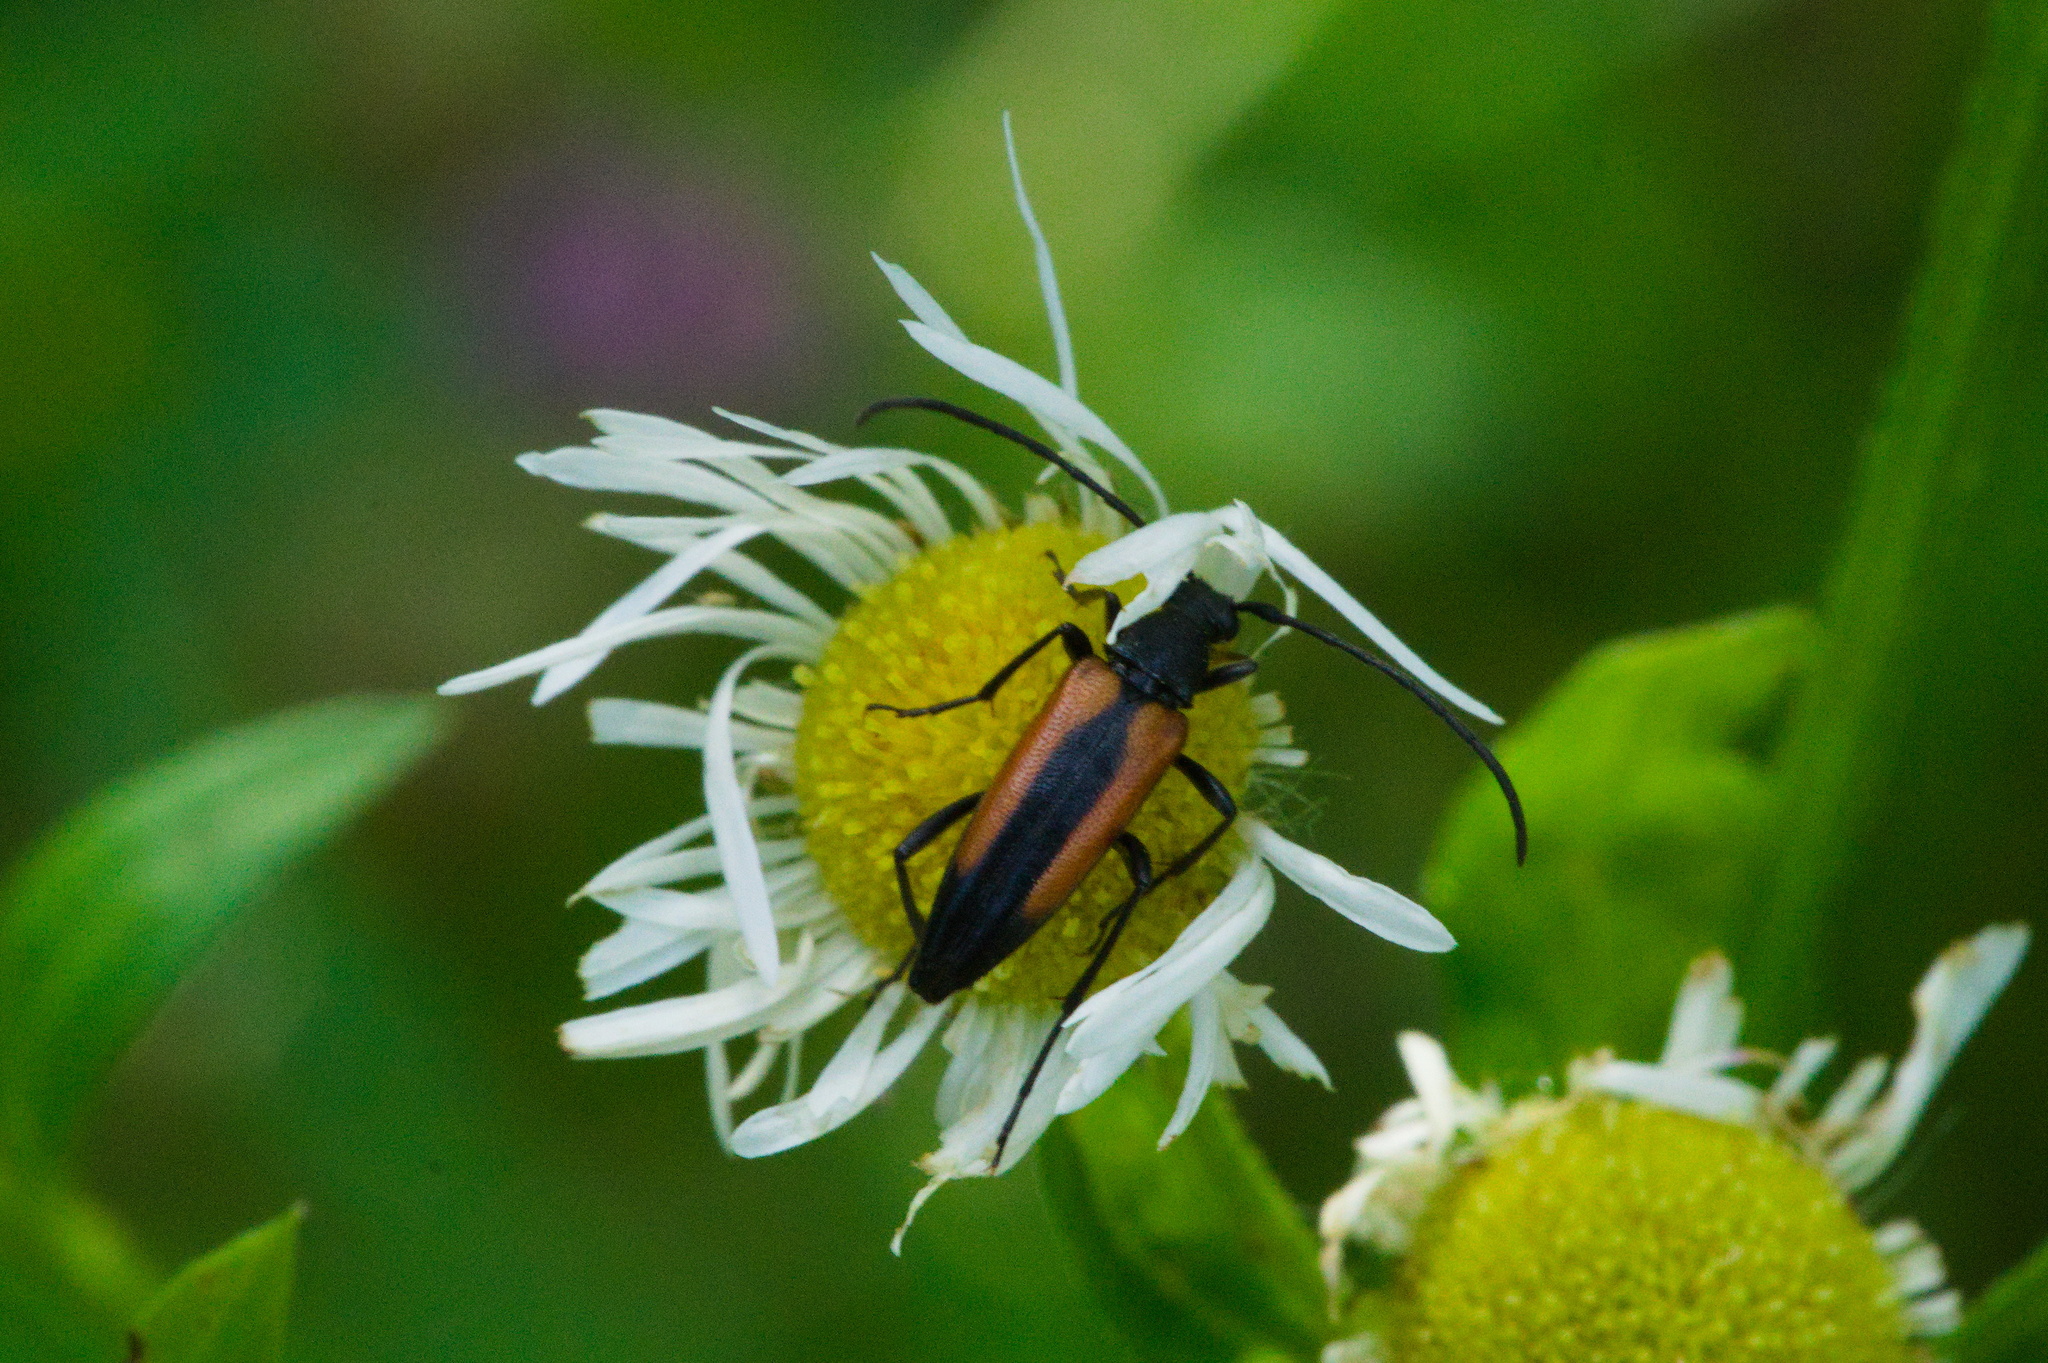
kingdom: Animalia
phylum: Arthropoda
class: Insecta
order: Coleoptera
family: Cerambycidae
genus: Stenurella
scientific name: Stenurella melanura
